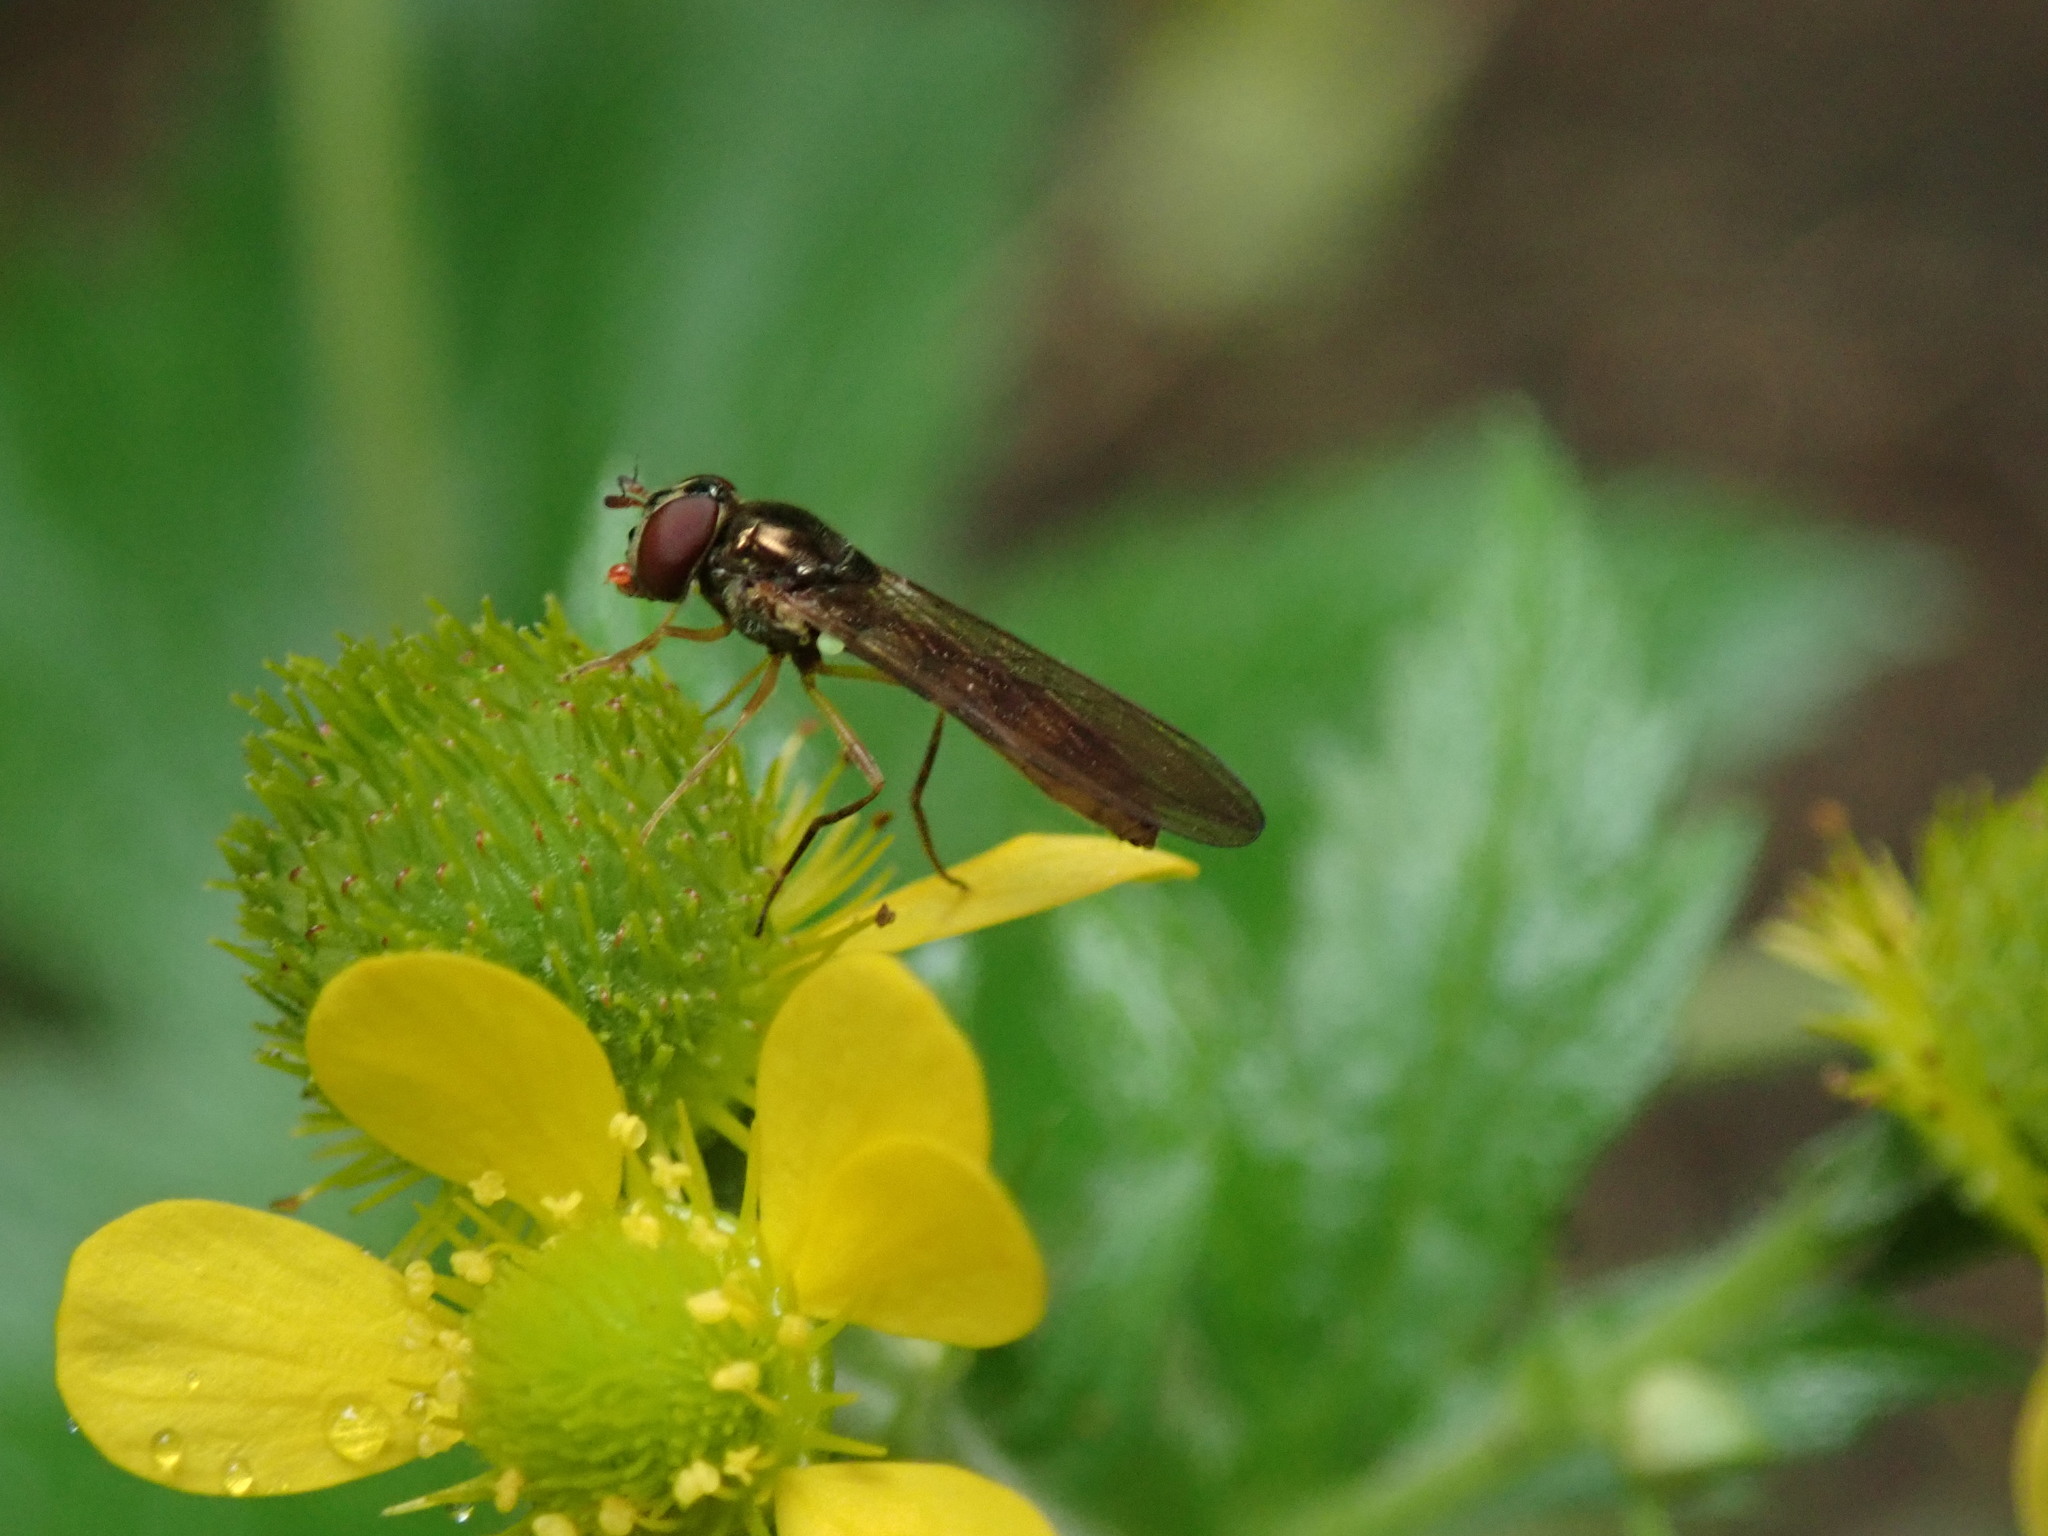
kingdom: Animalia
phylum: Arthropoda
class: Insecta
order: Diptera
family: Syrphidae
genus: Melanostoma
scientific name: Melanostoma mellina
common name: Hover fly
